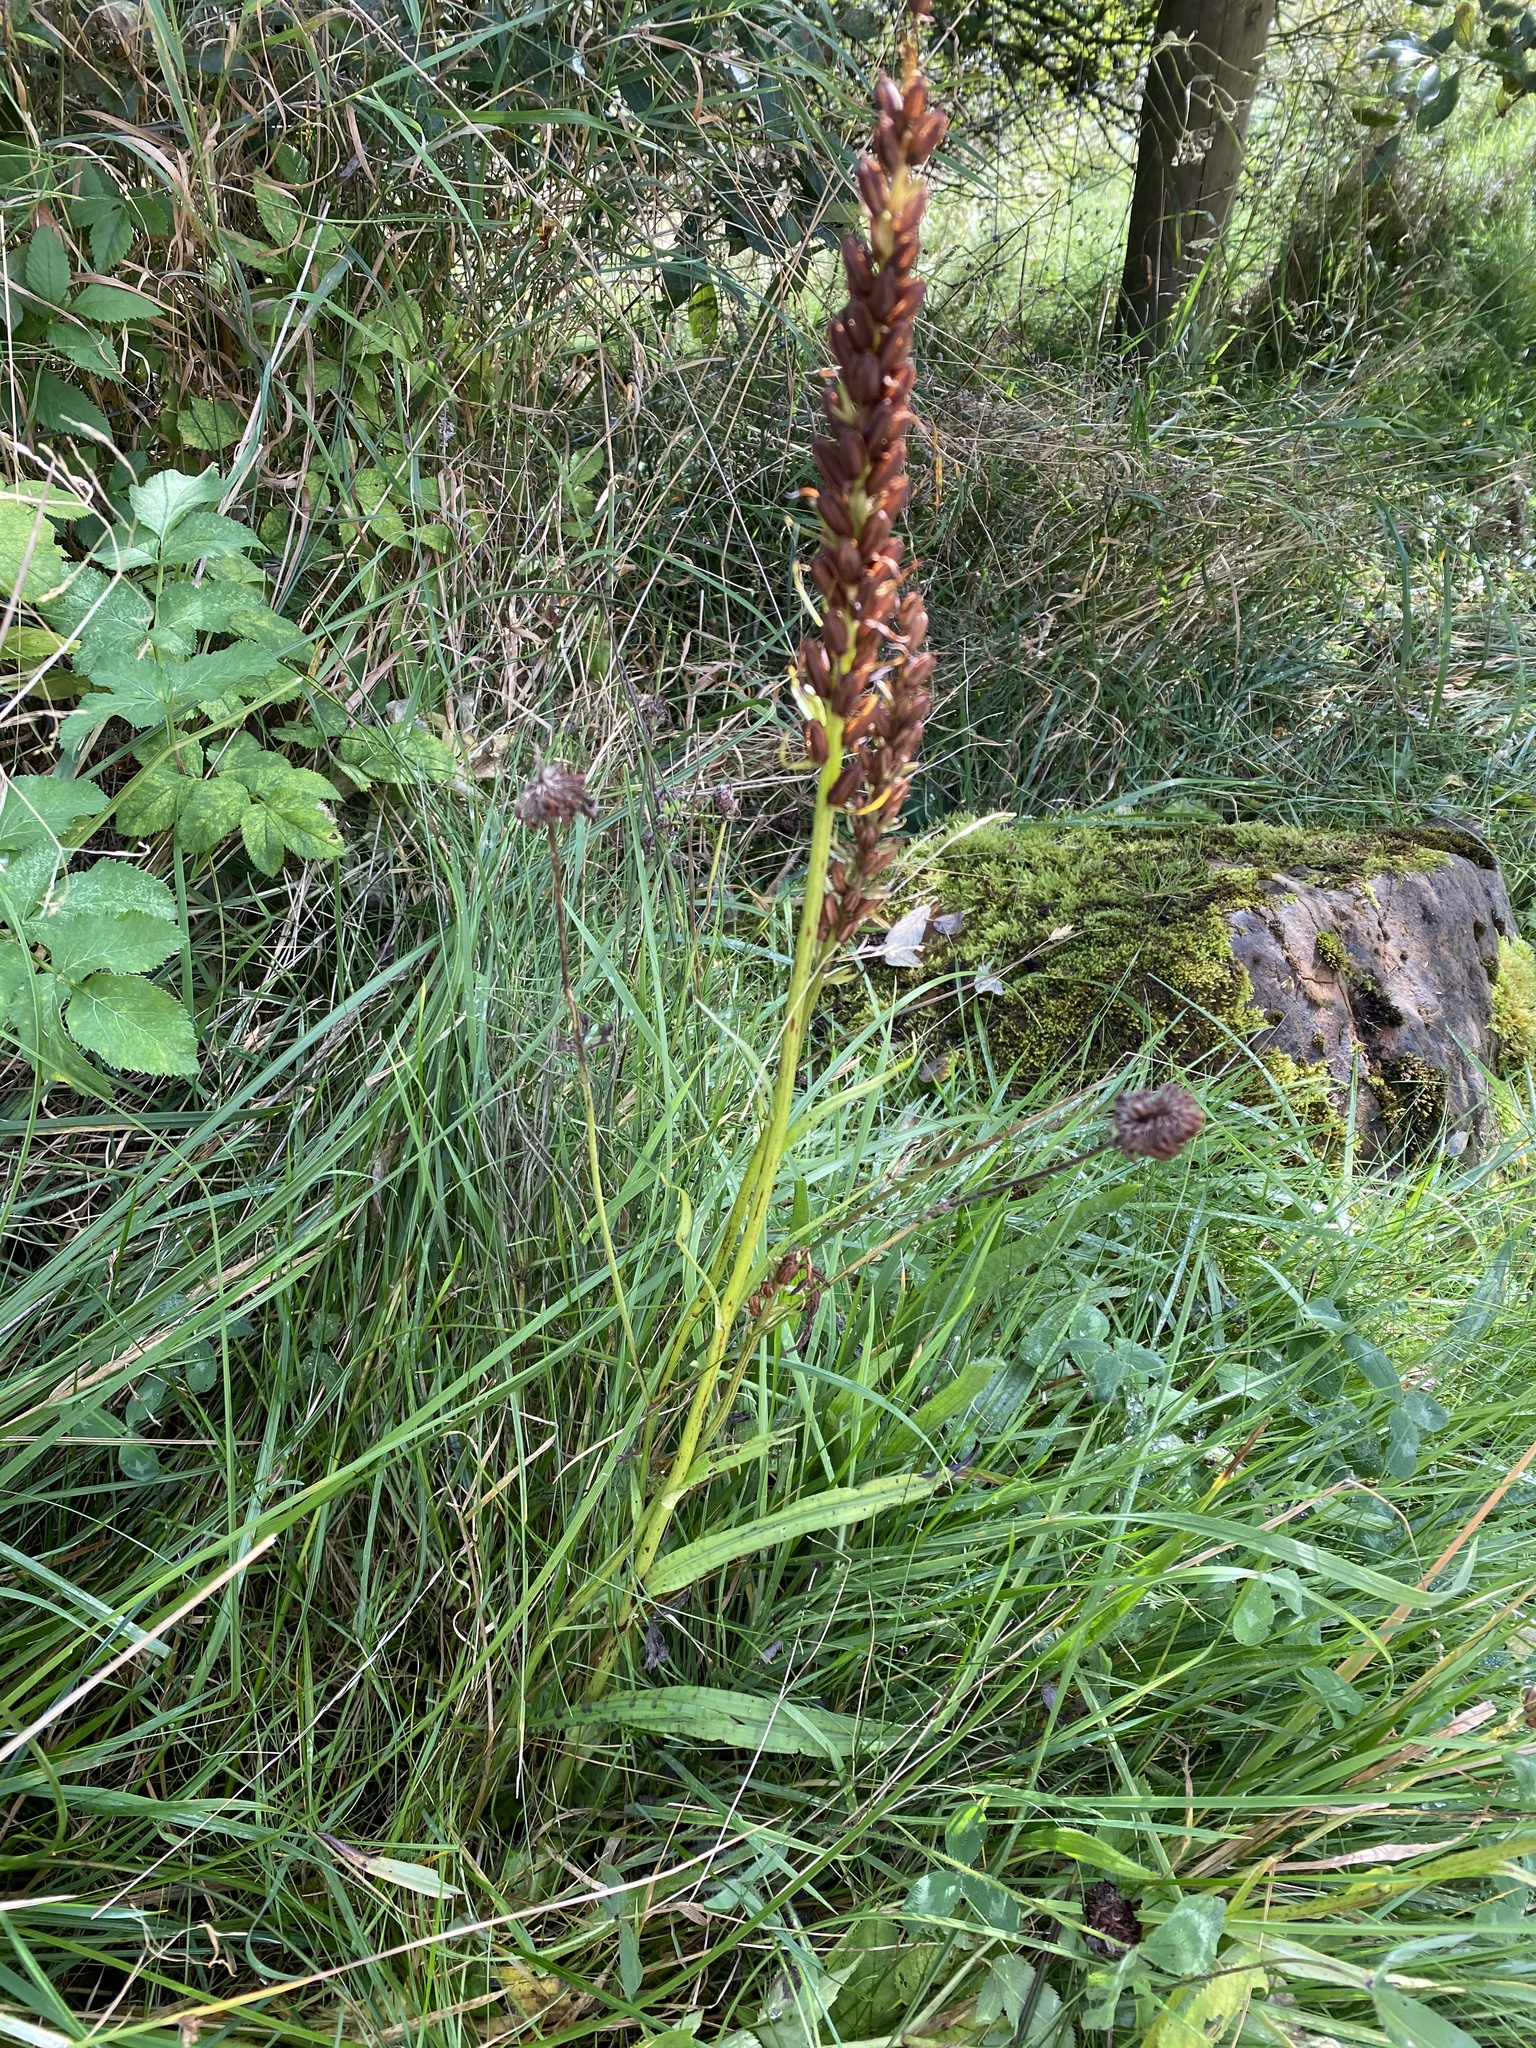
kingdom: Plantae
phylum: Tracheophyta
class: Liliopsida
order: Asparagales
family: Orchidaceae
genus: Dactylorhiza
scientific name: Dactylorhiza maculata
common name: Heath spotted-orchid
